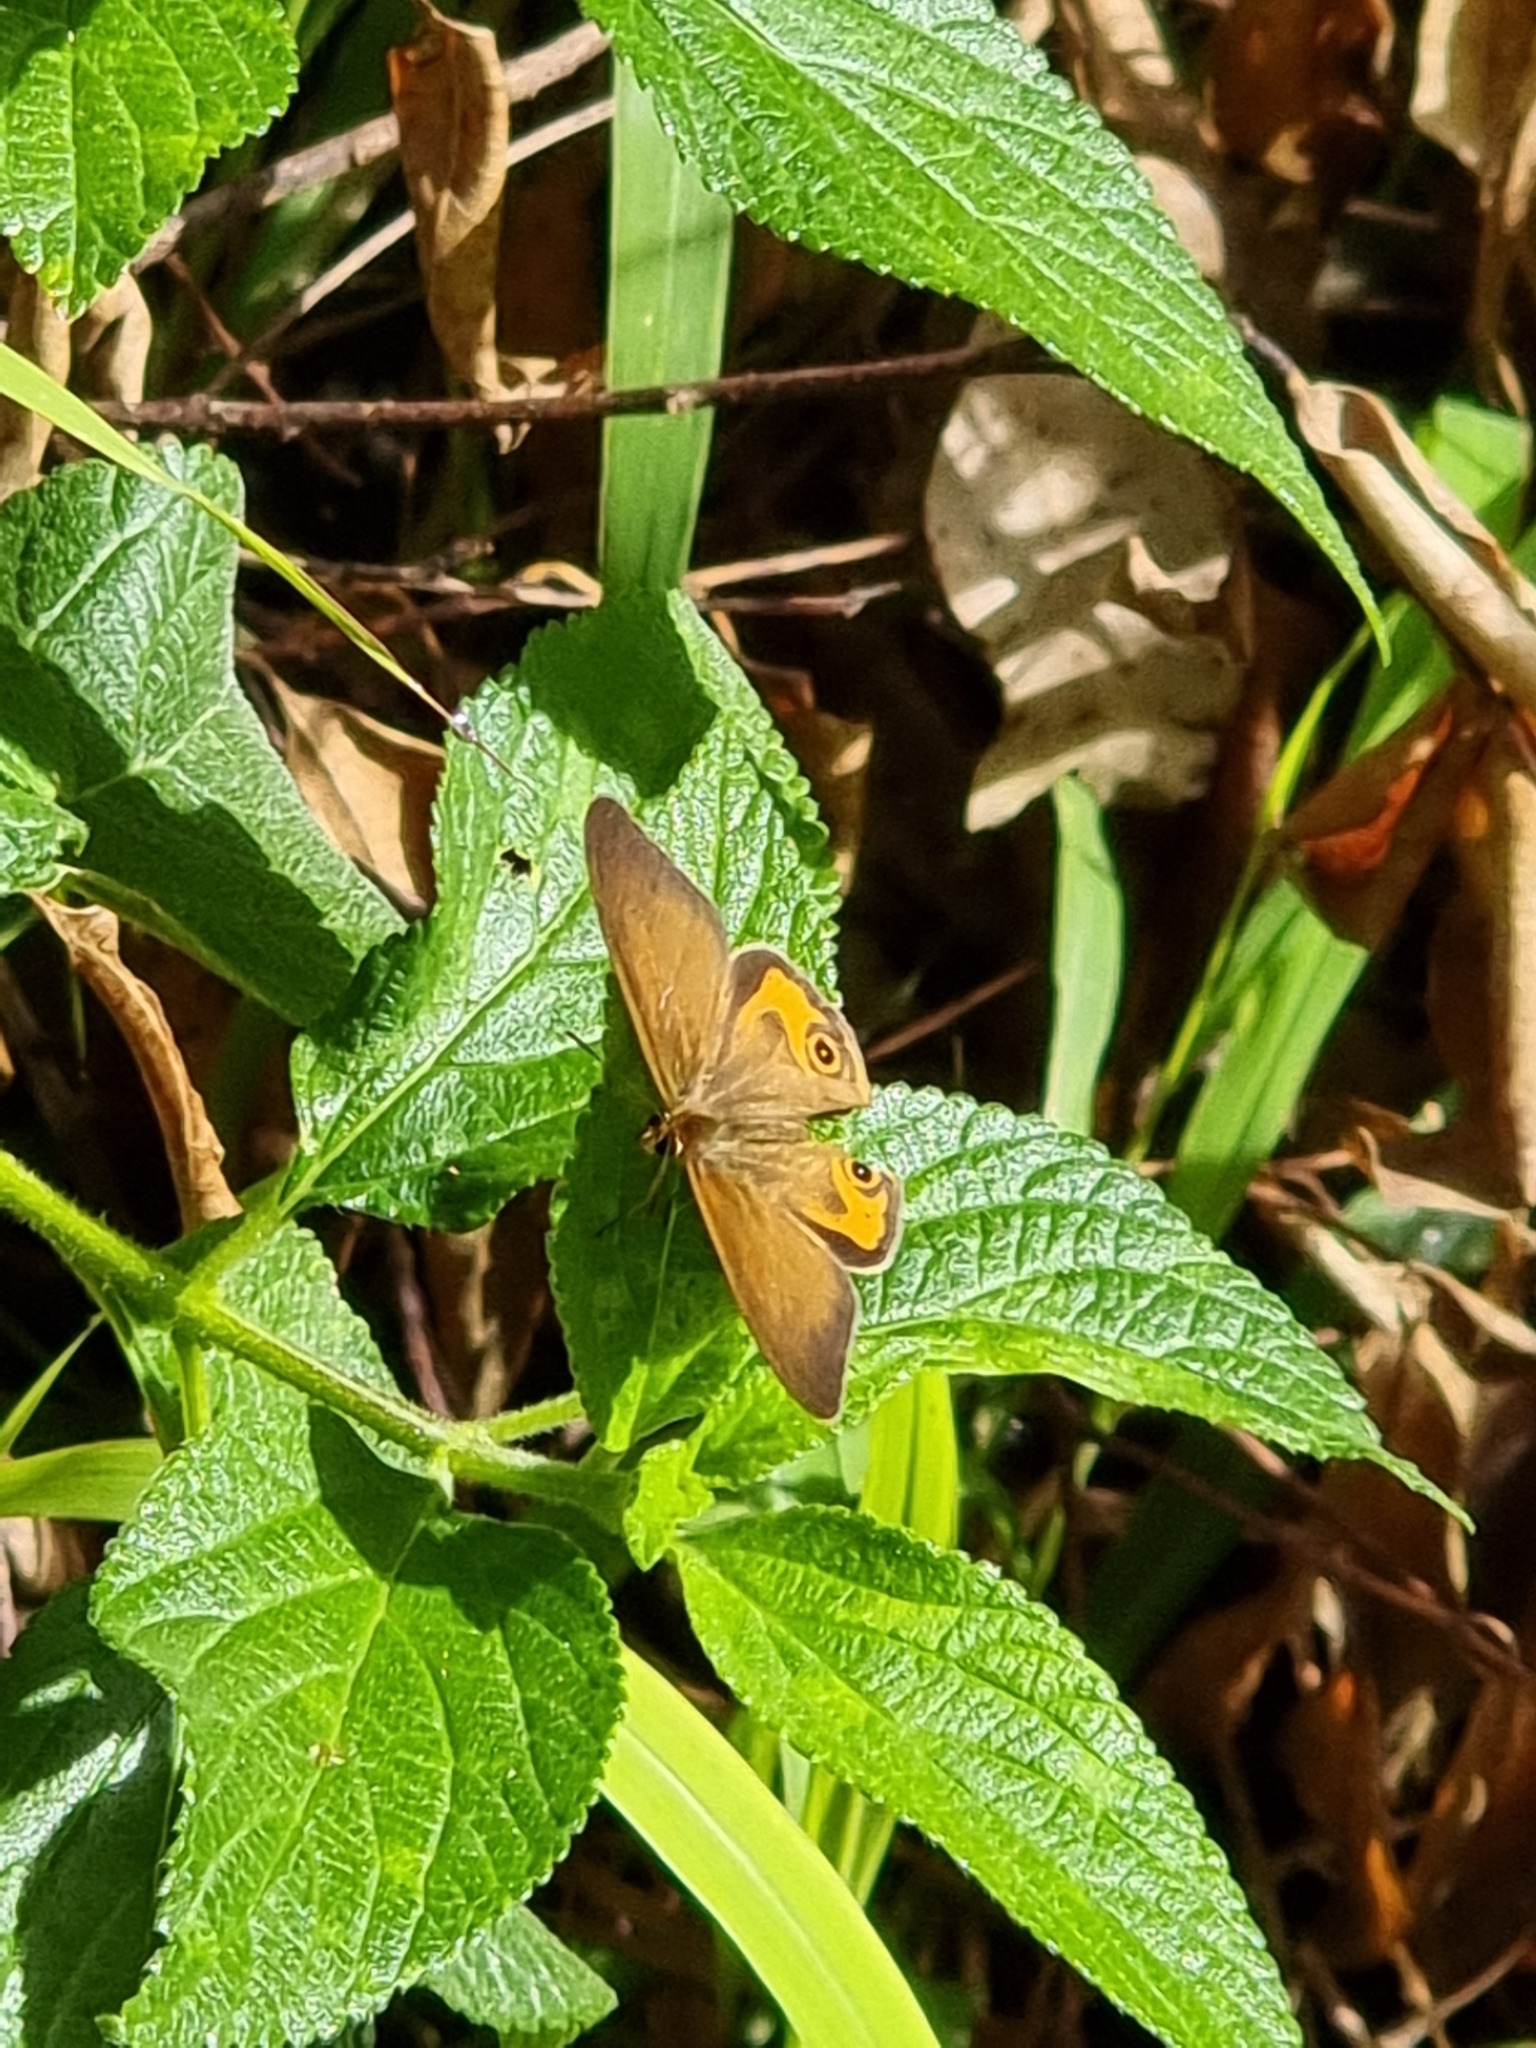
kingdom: Animalia
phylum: Arthropoda
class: Insecta
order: Lepidoptera
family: Nymphalidae
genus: Hypocysta
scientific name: Hypocysta metirius
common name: Brown ringlet
